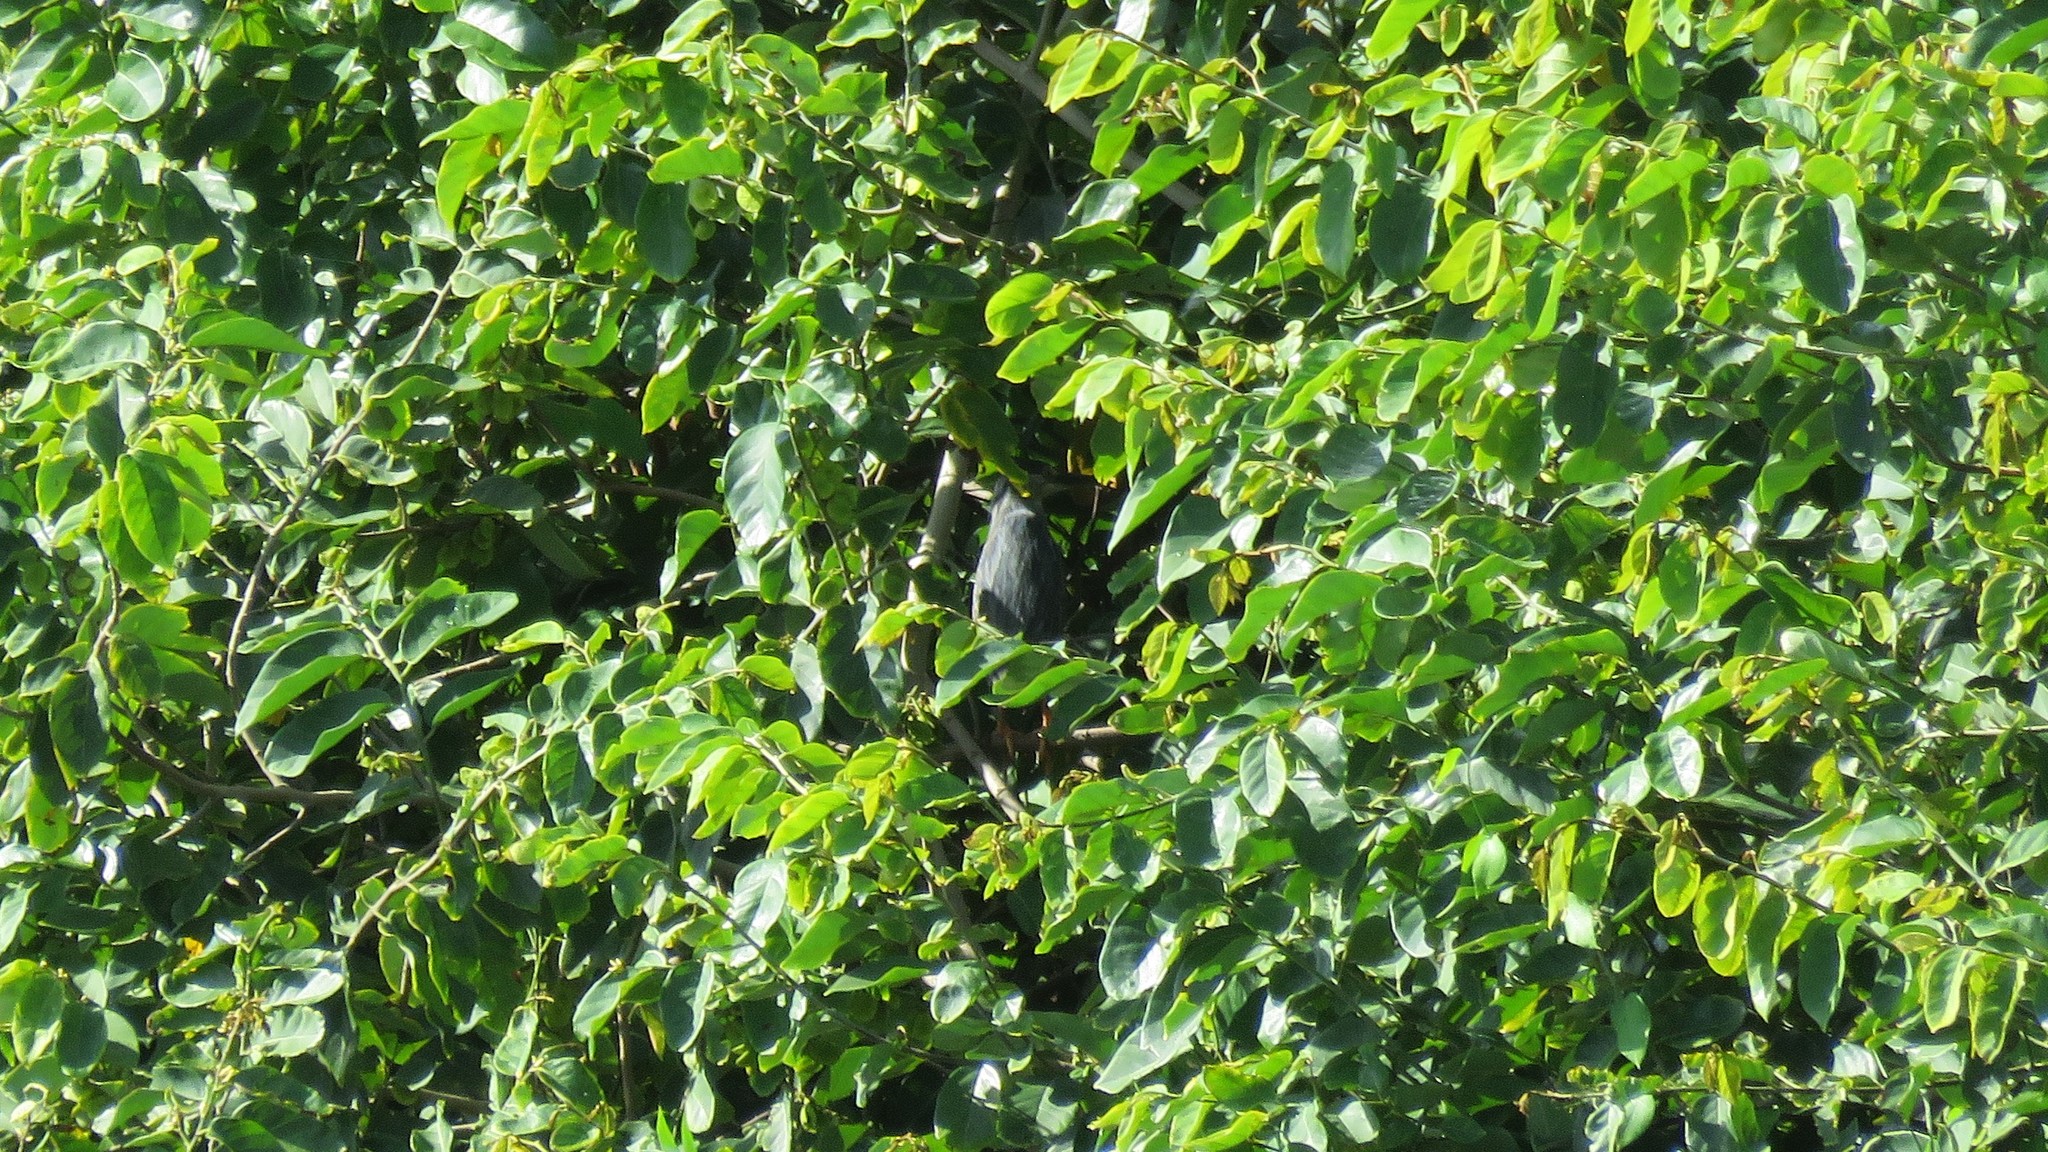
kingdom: Animalia
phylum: Chordata
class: Aves
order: Pelecaniformes
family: Ardeidae
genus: Butorides
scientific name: Butorides striata
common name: Striated heron
